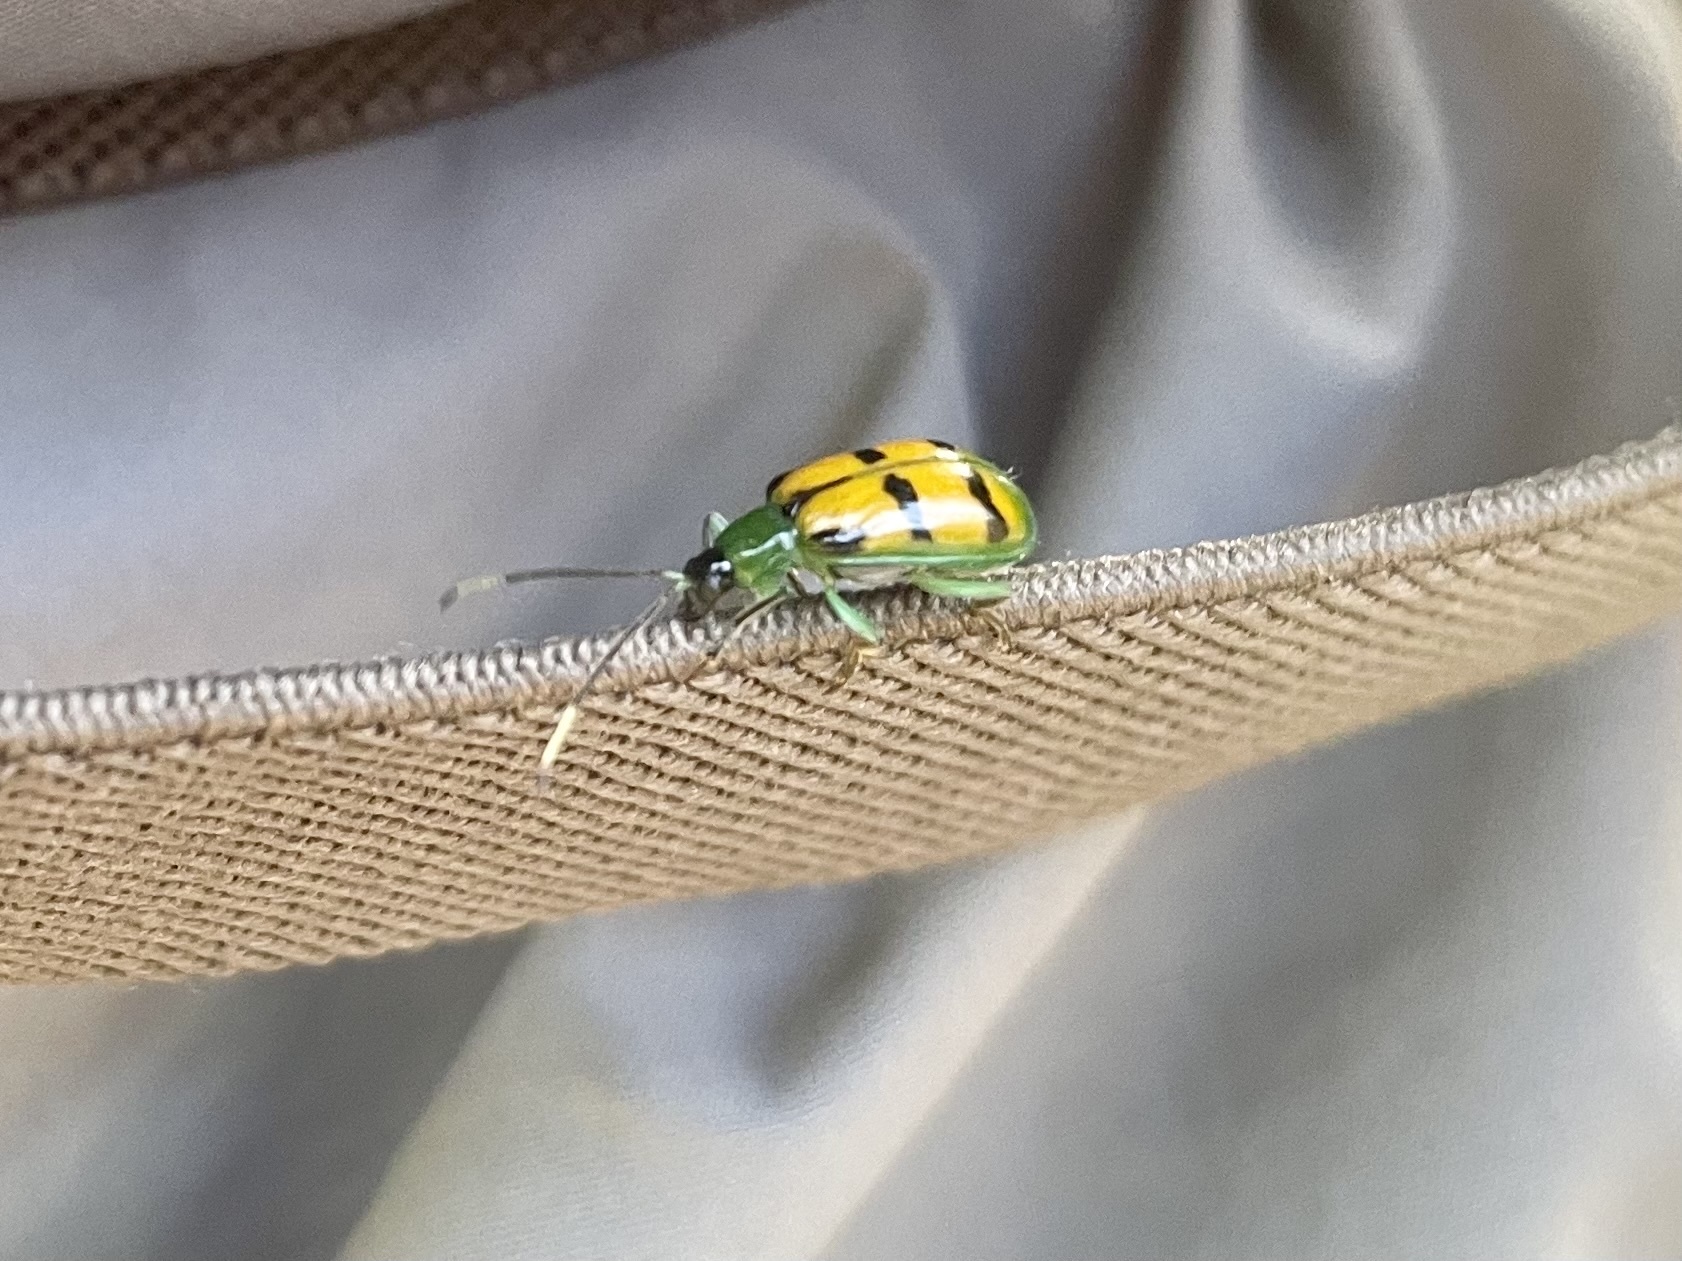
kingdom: Animalia
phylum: Arthropoda
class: Insecta
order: Coleoptera
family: Chrysomelidae
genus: Diabrotica
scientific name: Diabrotica
